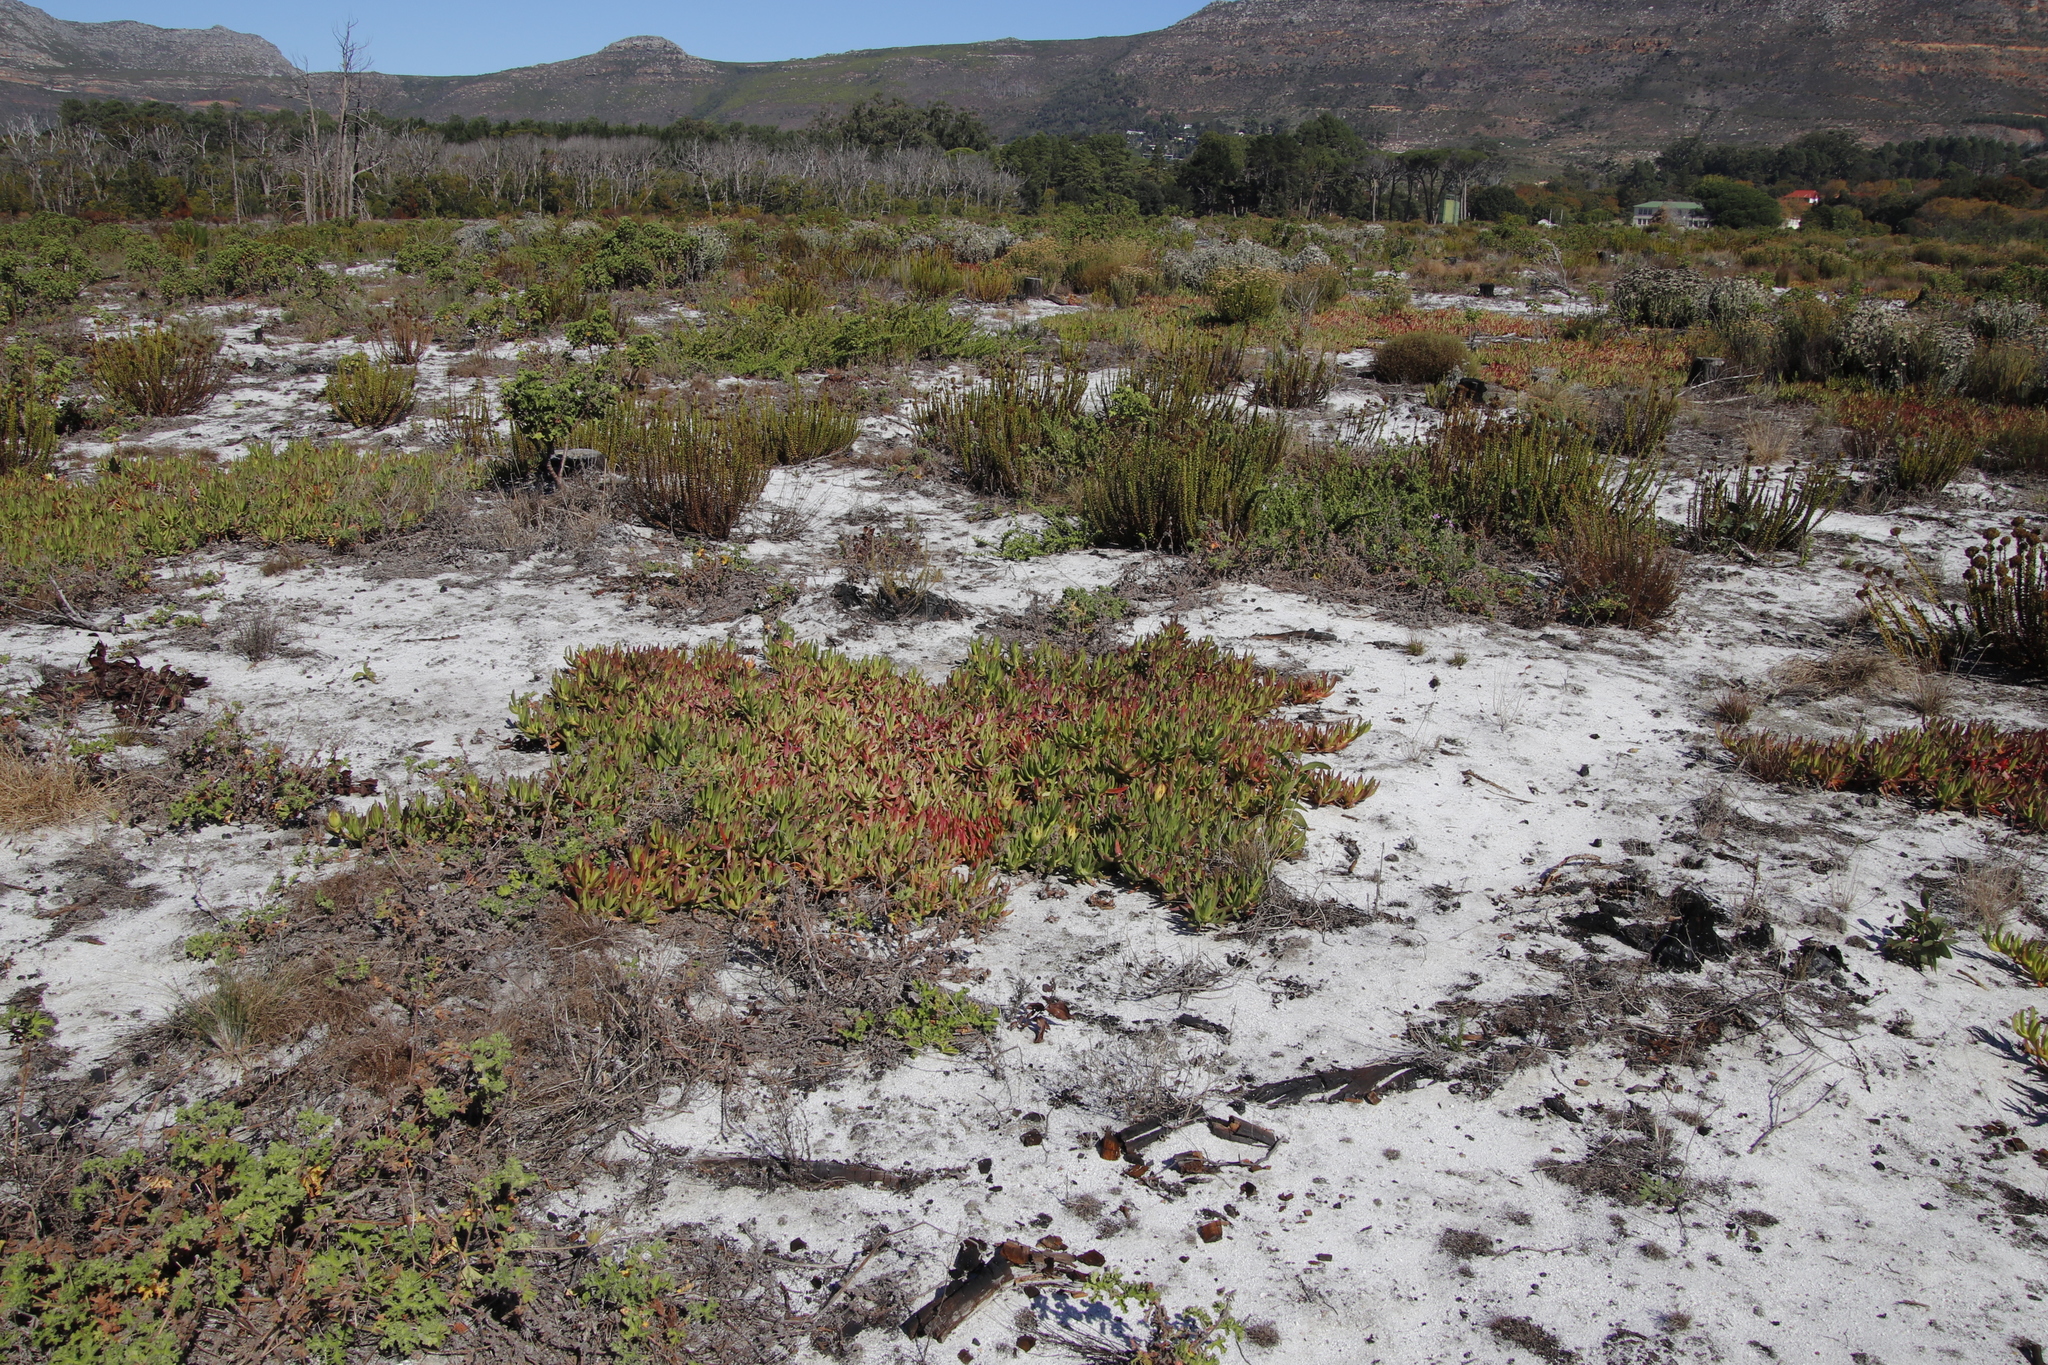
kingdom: Plantae
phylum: Tracheophyta
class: Magnoliopsida
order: Caryophyllales
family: Aizoaceae
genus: Carpobrotus
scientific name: Carpobrotus edulis
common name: Hottentot-fig
